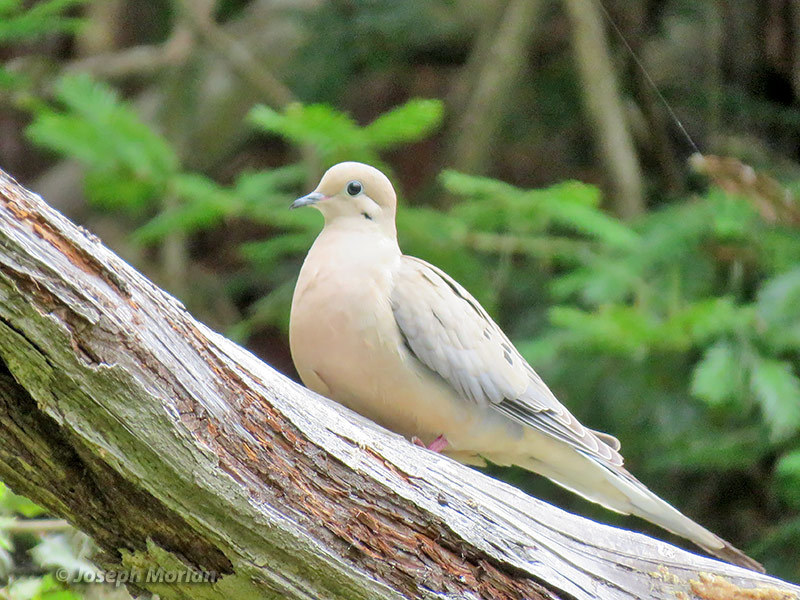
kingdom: Animalia
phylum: Chordata
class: Aves
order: Columbiformes
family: Columbidae
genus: Zenaida
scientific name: Zenaida macroura
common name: Mourning dove
